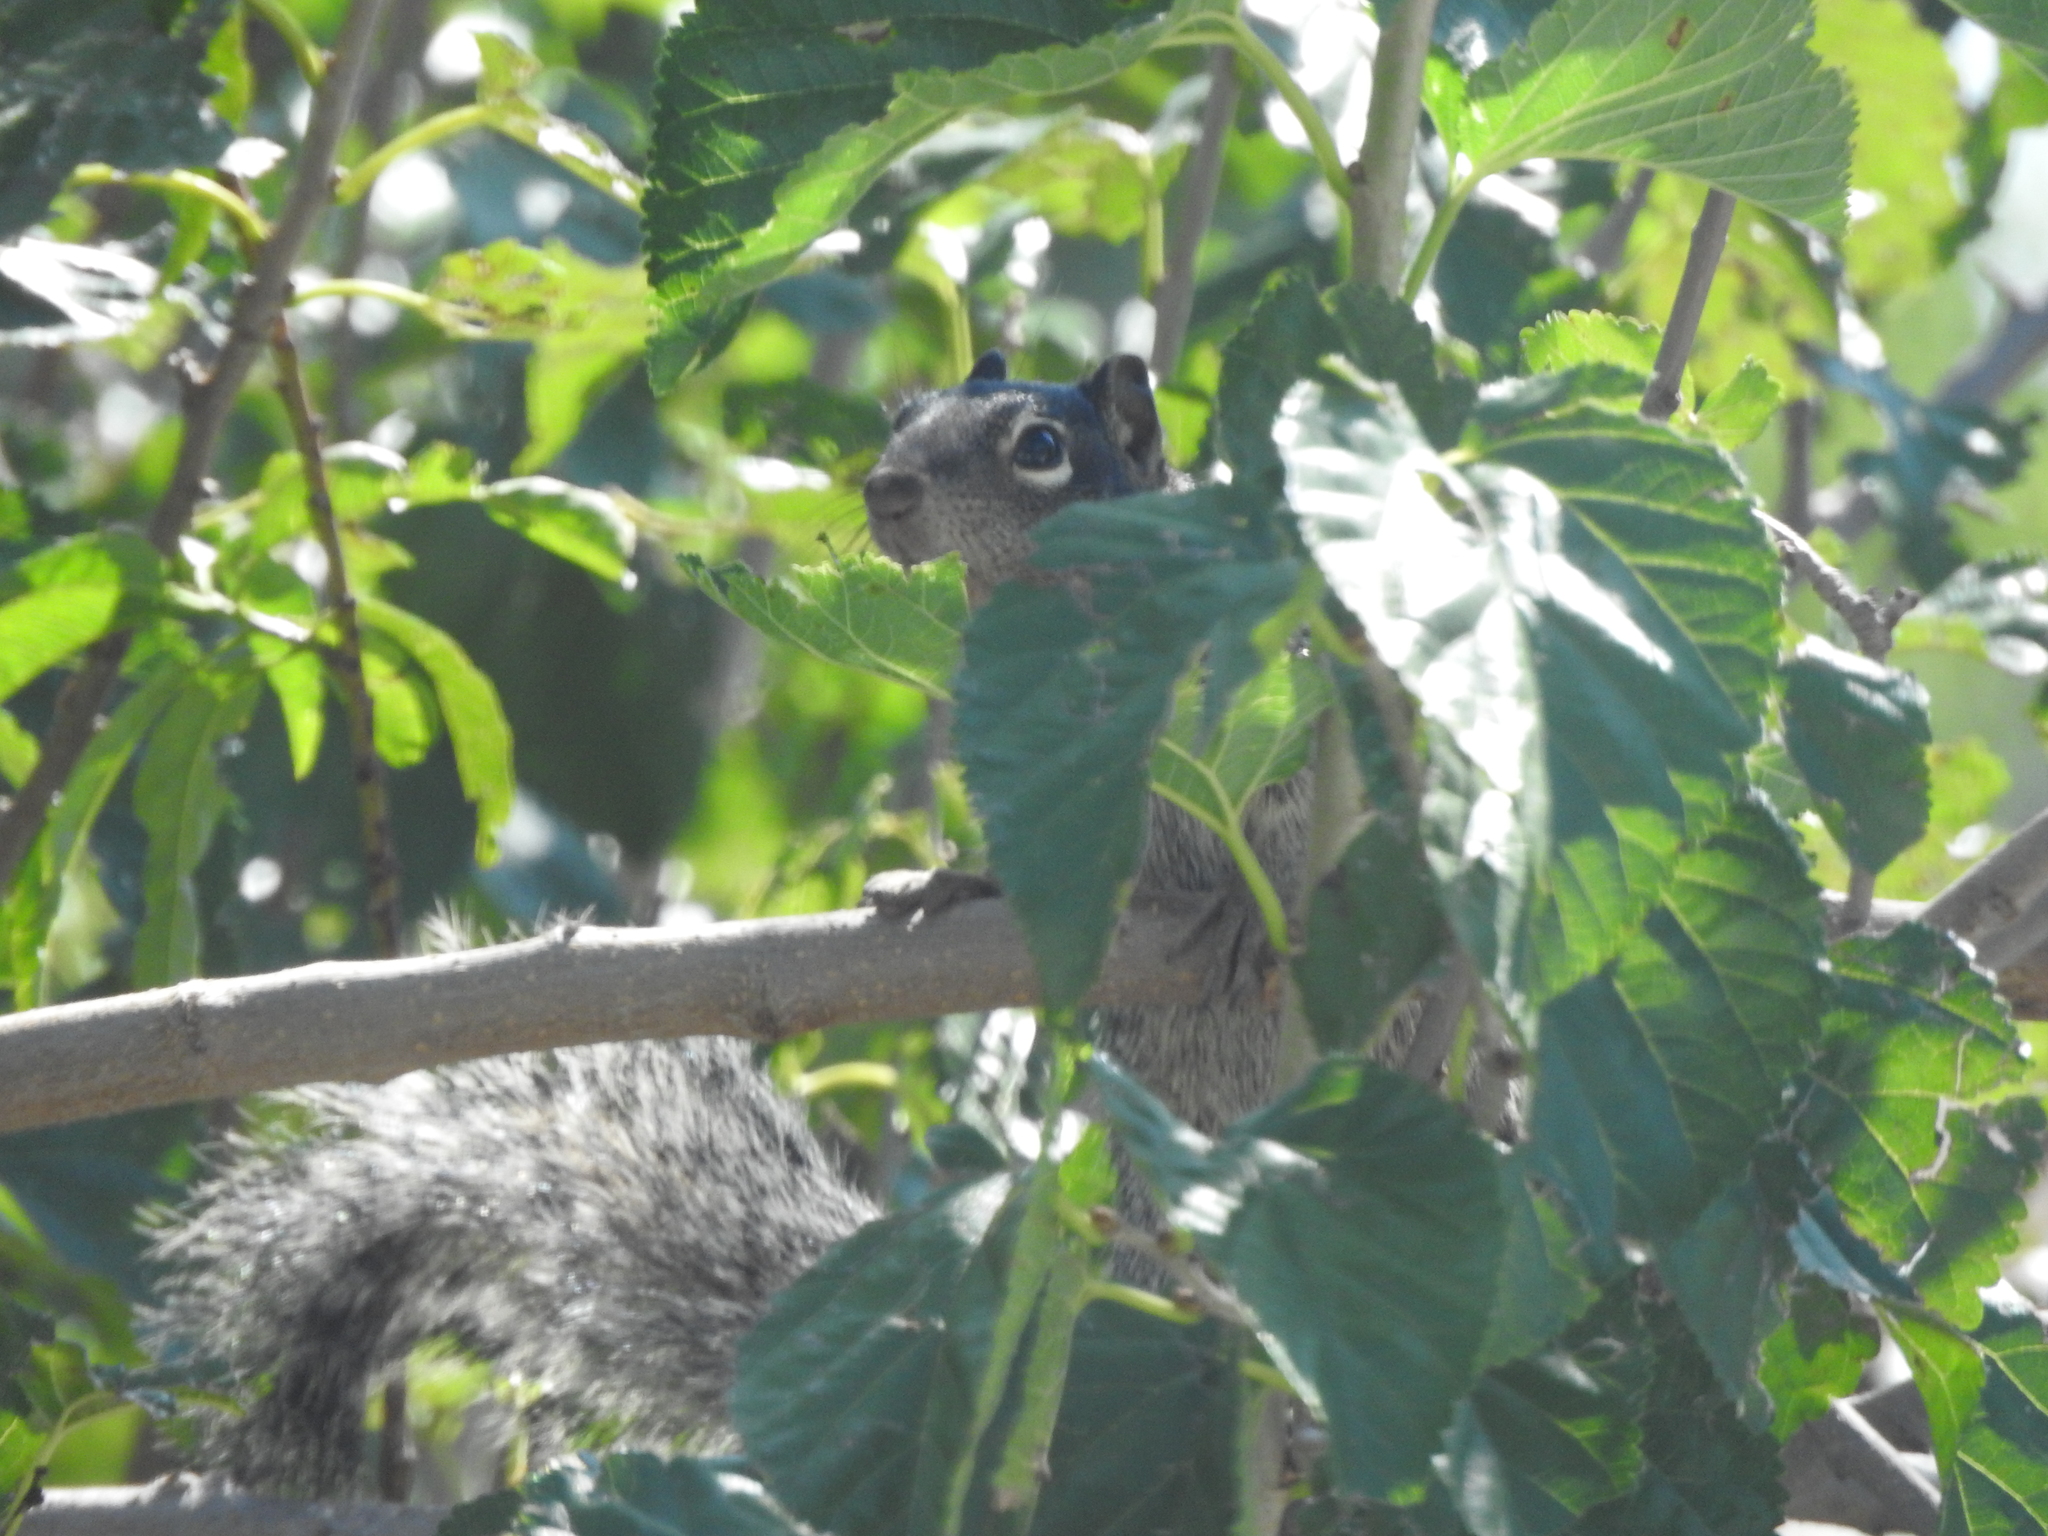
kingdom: Animalia
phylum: Chordata
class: Mammalia
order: Rodentia
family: Sciuridae
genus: Otospermophilus
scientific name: Otospermophilus variegatus
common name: Rock squirrel
